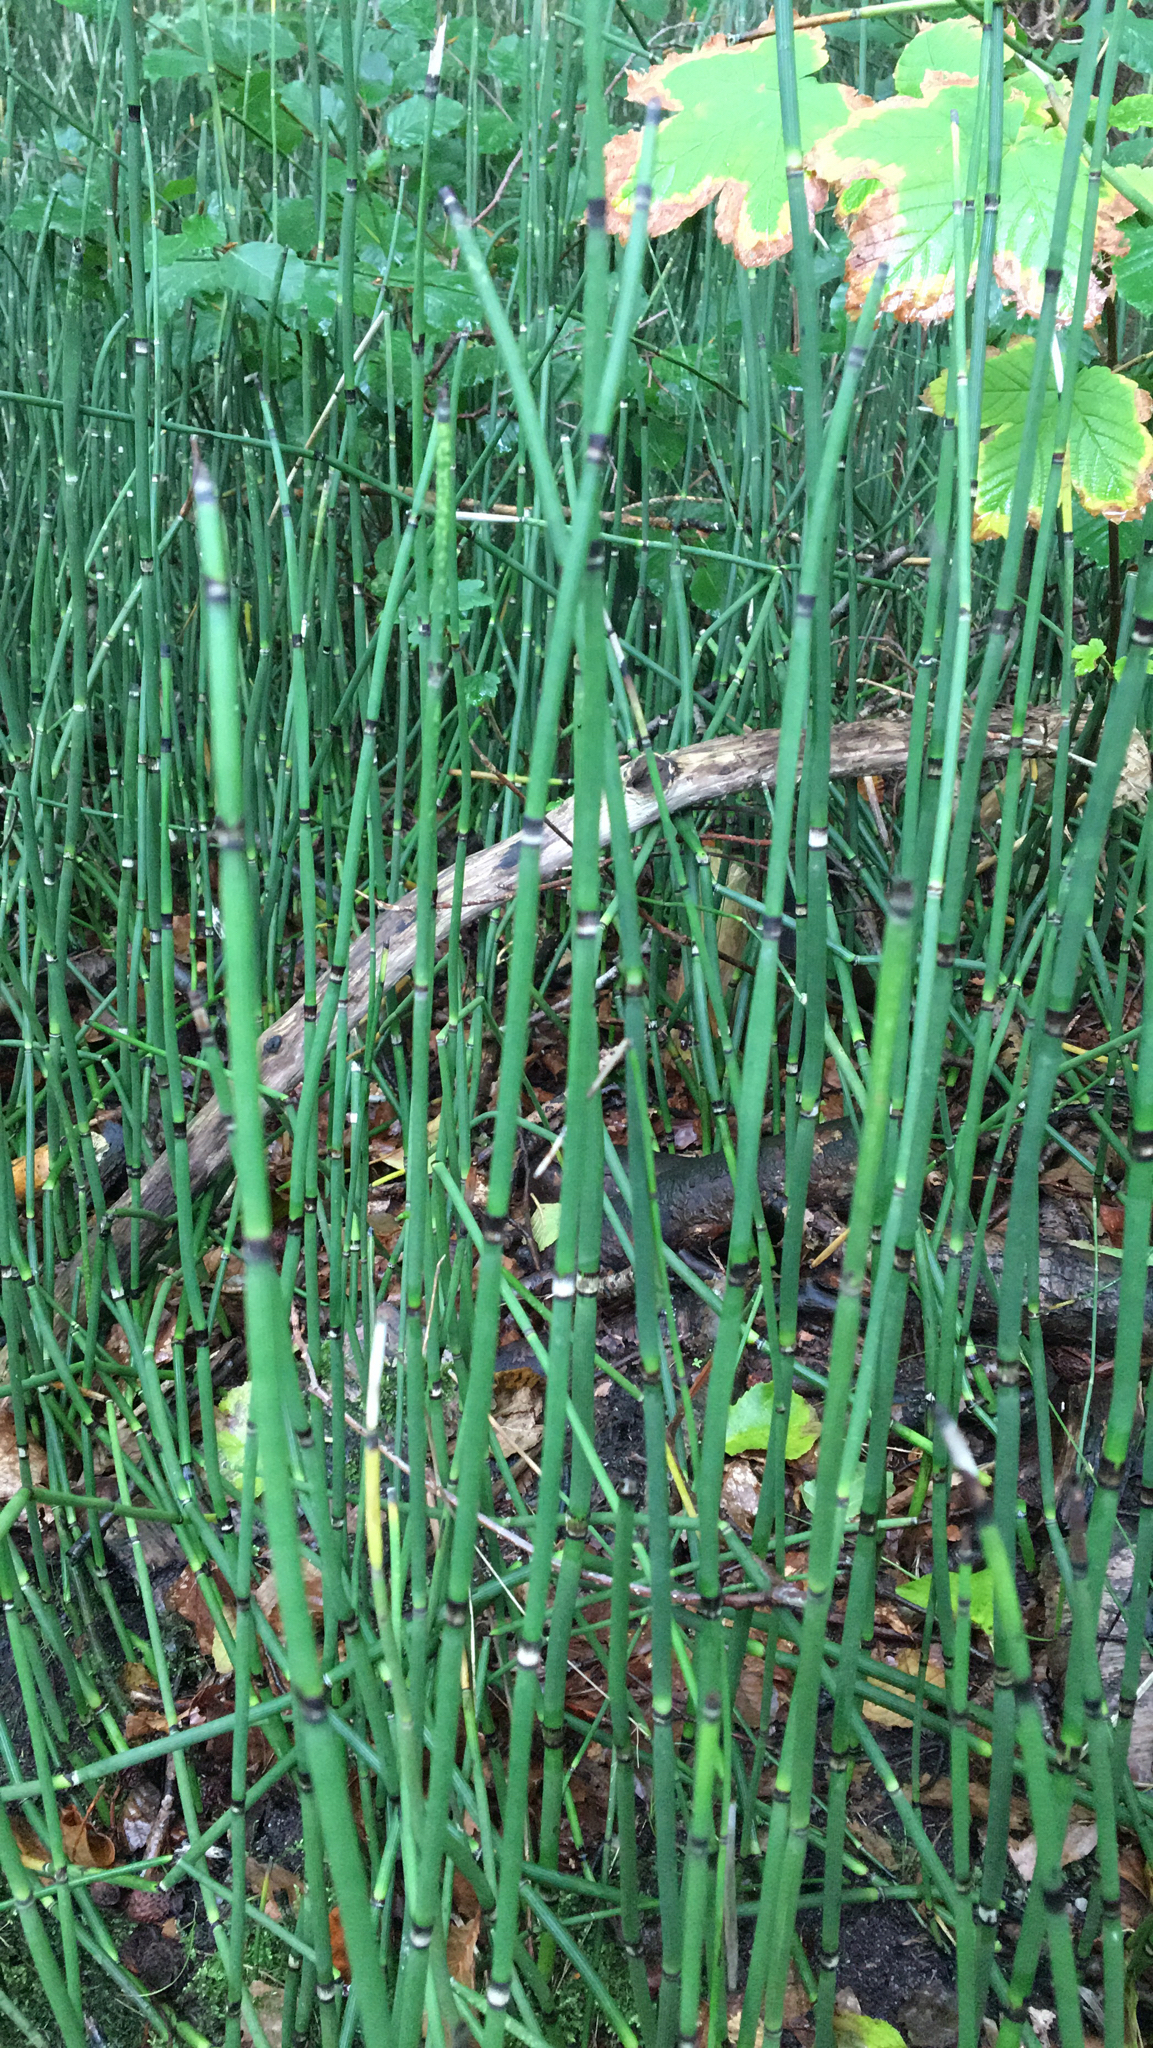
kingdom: Plantae
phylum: Tracheophyta
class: Polypodiopsida
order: Equisetales
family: Equisetaceae
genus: Equisetum
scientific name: Equisetum hyemale
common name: Rough horsetail
